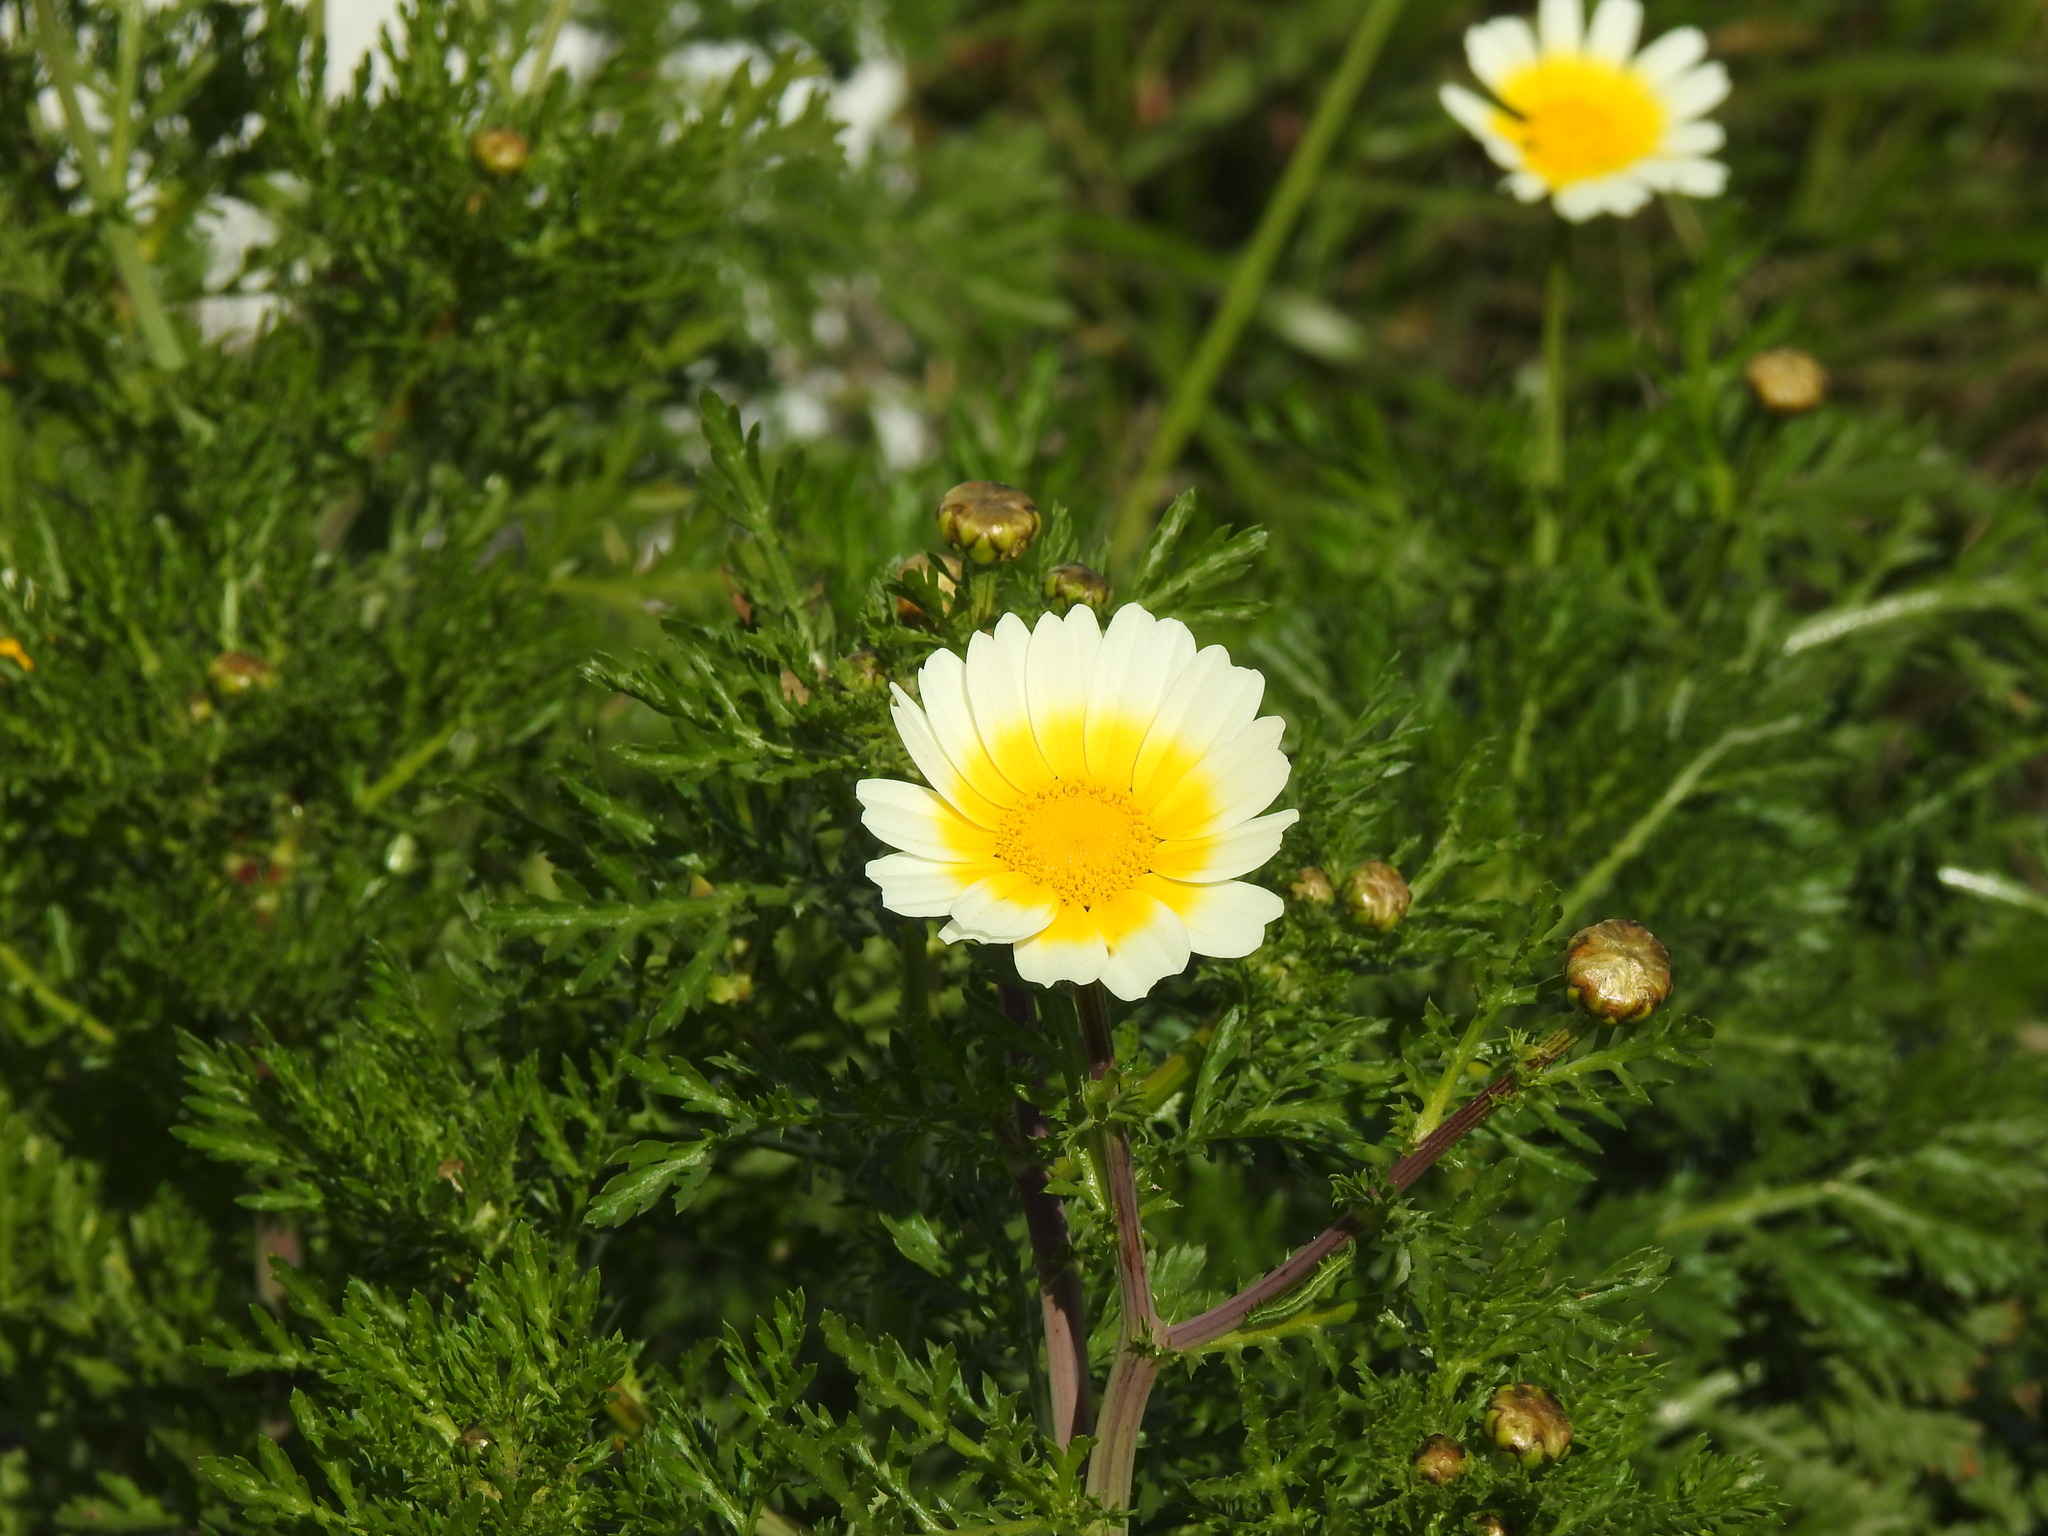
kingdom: Plantae
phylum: Tracheophyta
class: Magnoliopsida
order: Asterales
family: Asteraceae
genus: Glebionis
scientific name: Glebionis coronaria
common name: Crowndaisy
